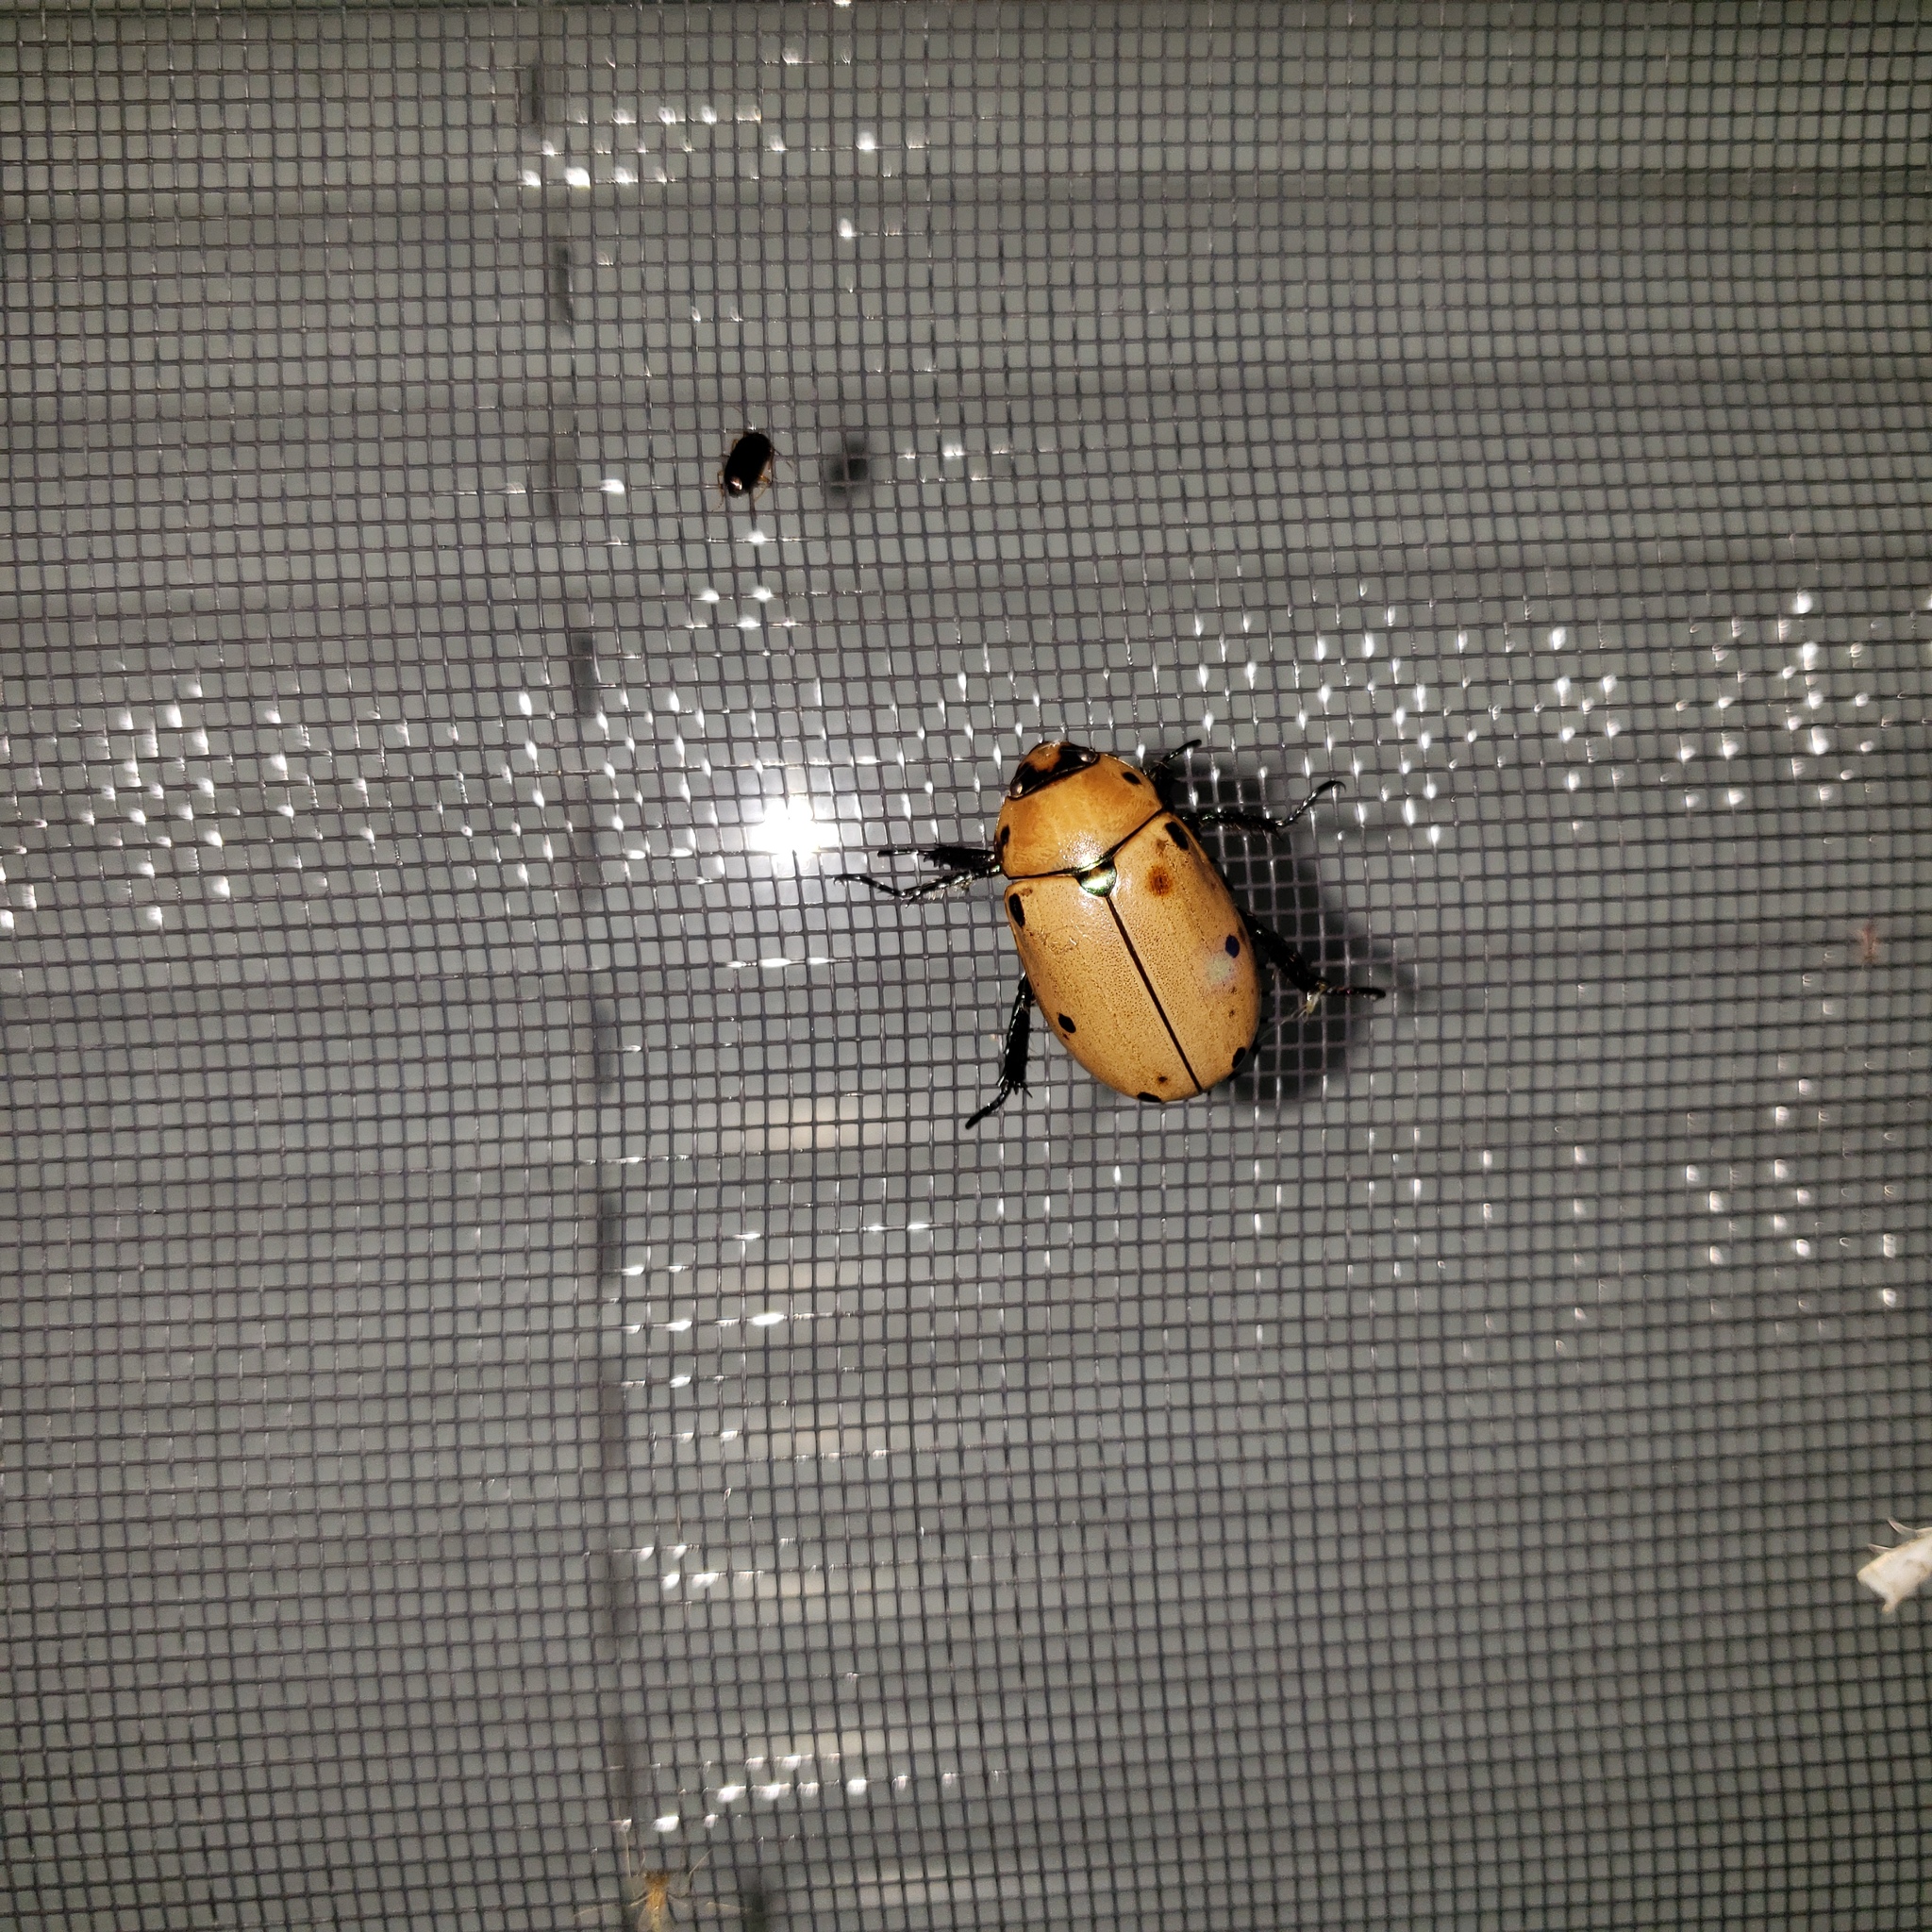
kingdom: Animalia
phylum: Arthropoda
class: Insecta
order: Coleoptera
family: Scarabaeidae
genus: Pelidnota
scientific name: Pelidnota punctata
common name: Grapevine beetle
